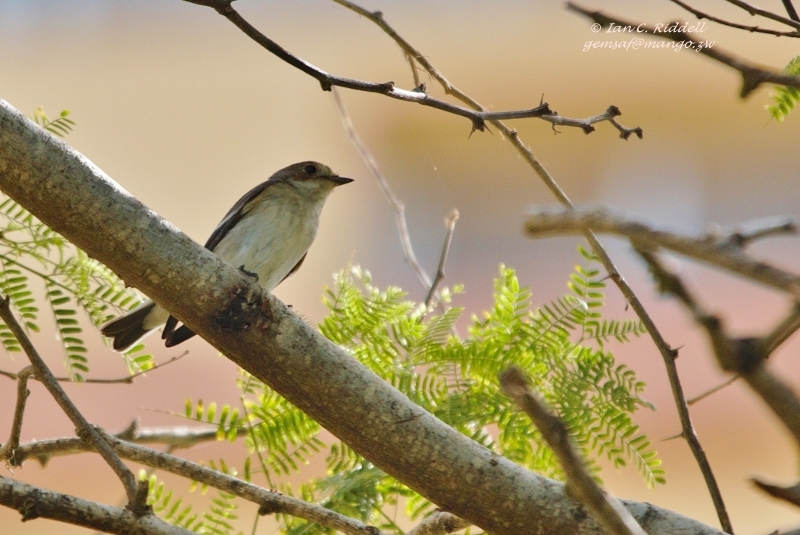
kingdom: Animalia
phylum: Chordata
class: Aves
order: Passeriformes
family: Muscicapidae
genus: Ficedula
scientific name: Ficedula hypoleuca
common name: European pied flycatcher
